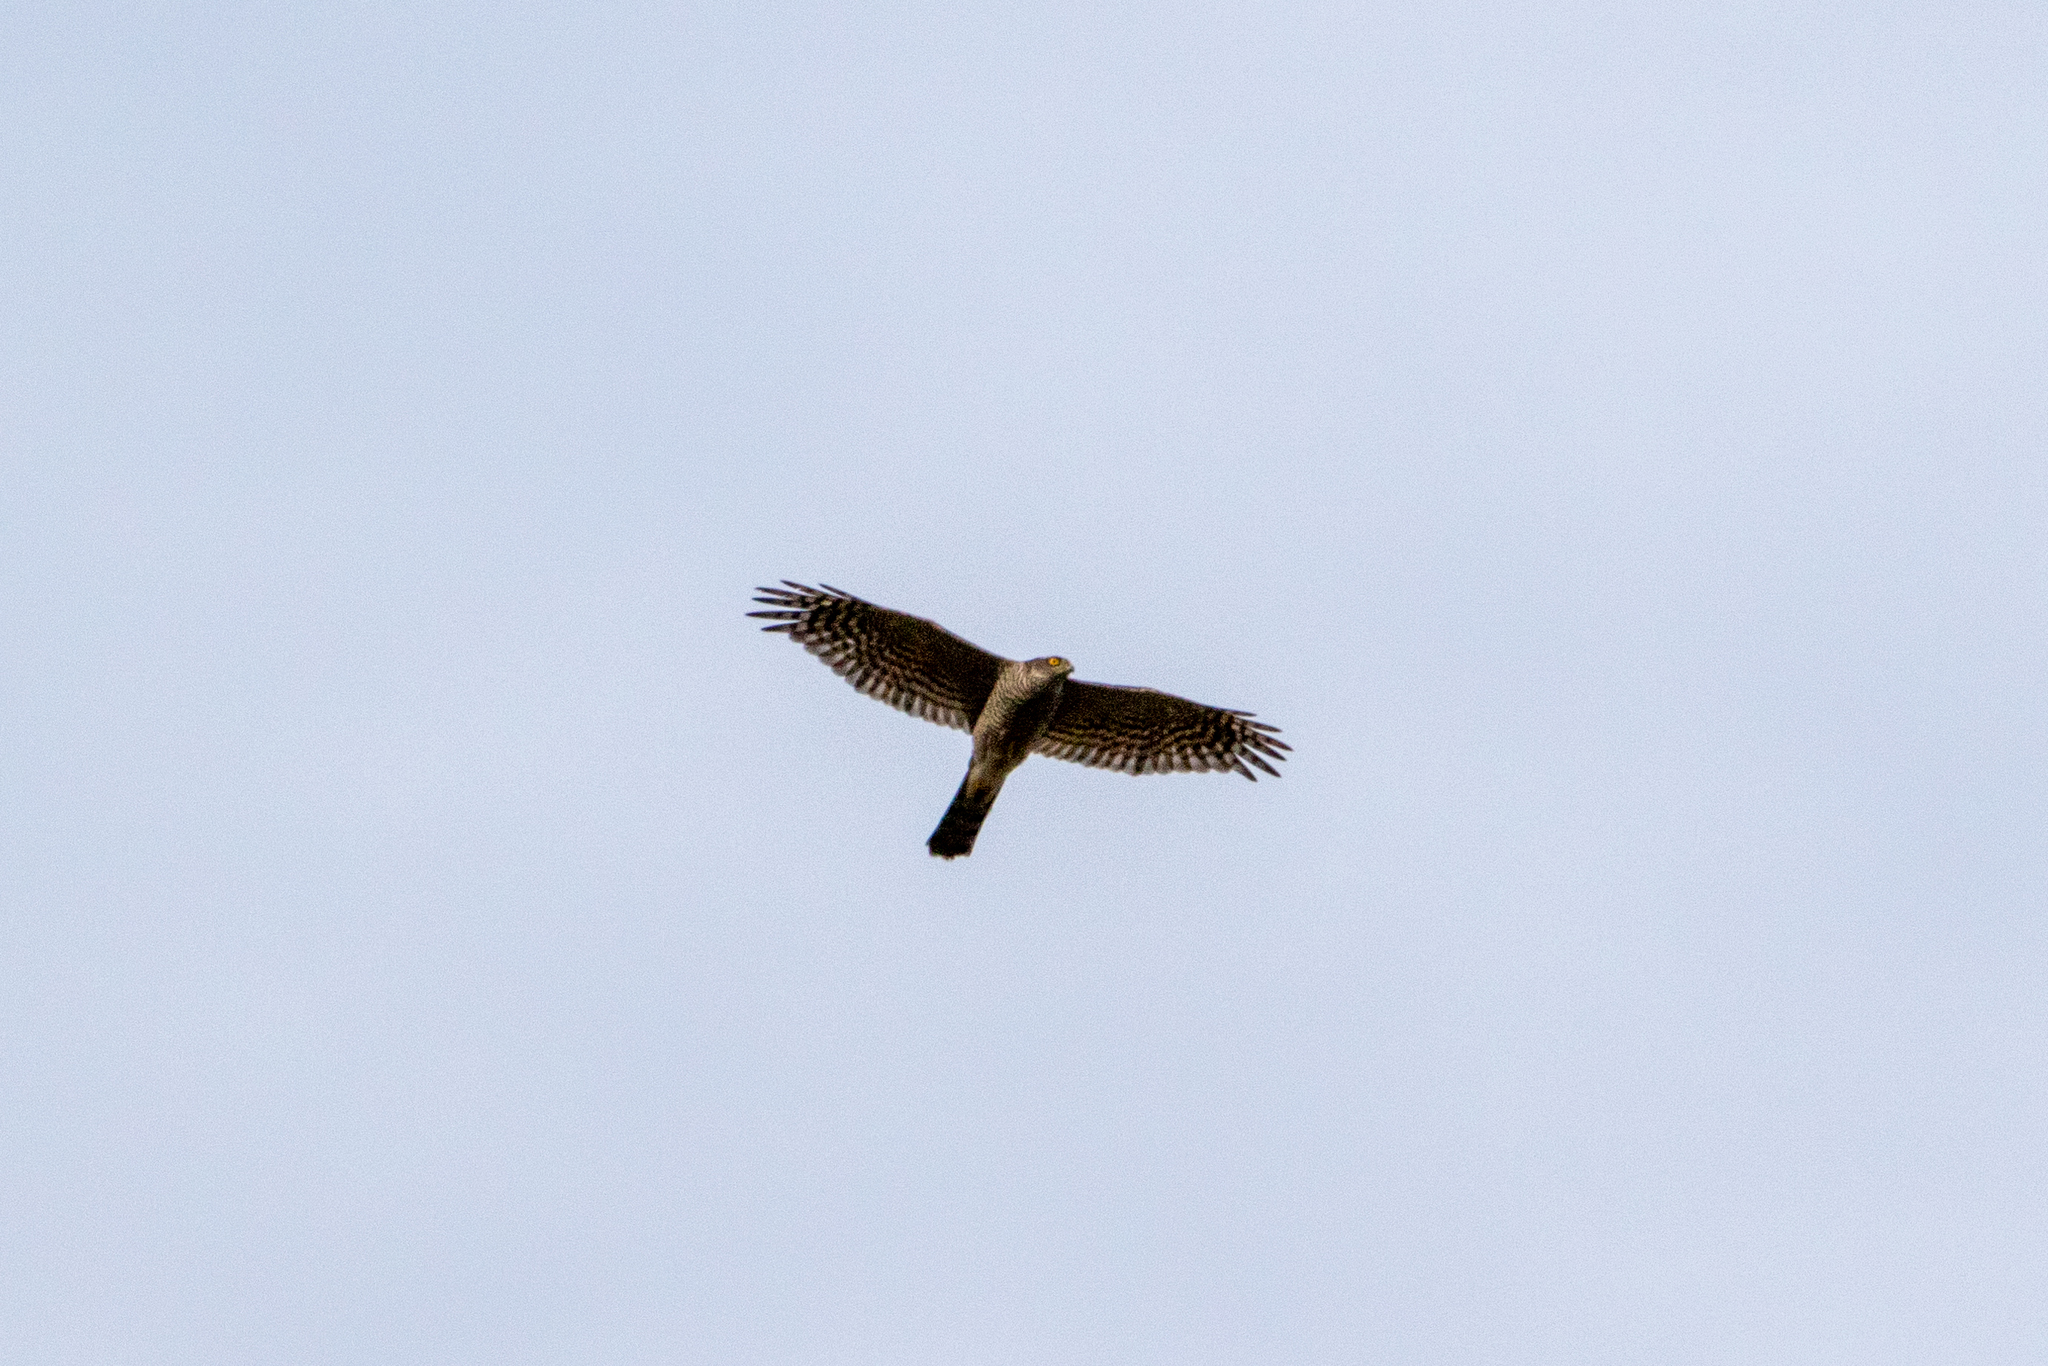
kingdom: Animalia
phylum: Chordata
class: Aves
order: Accipitriformes
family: Accipitridae
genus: Accipiter
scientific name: Accipiter nisus
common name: Eurasian sparrowhawk
